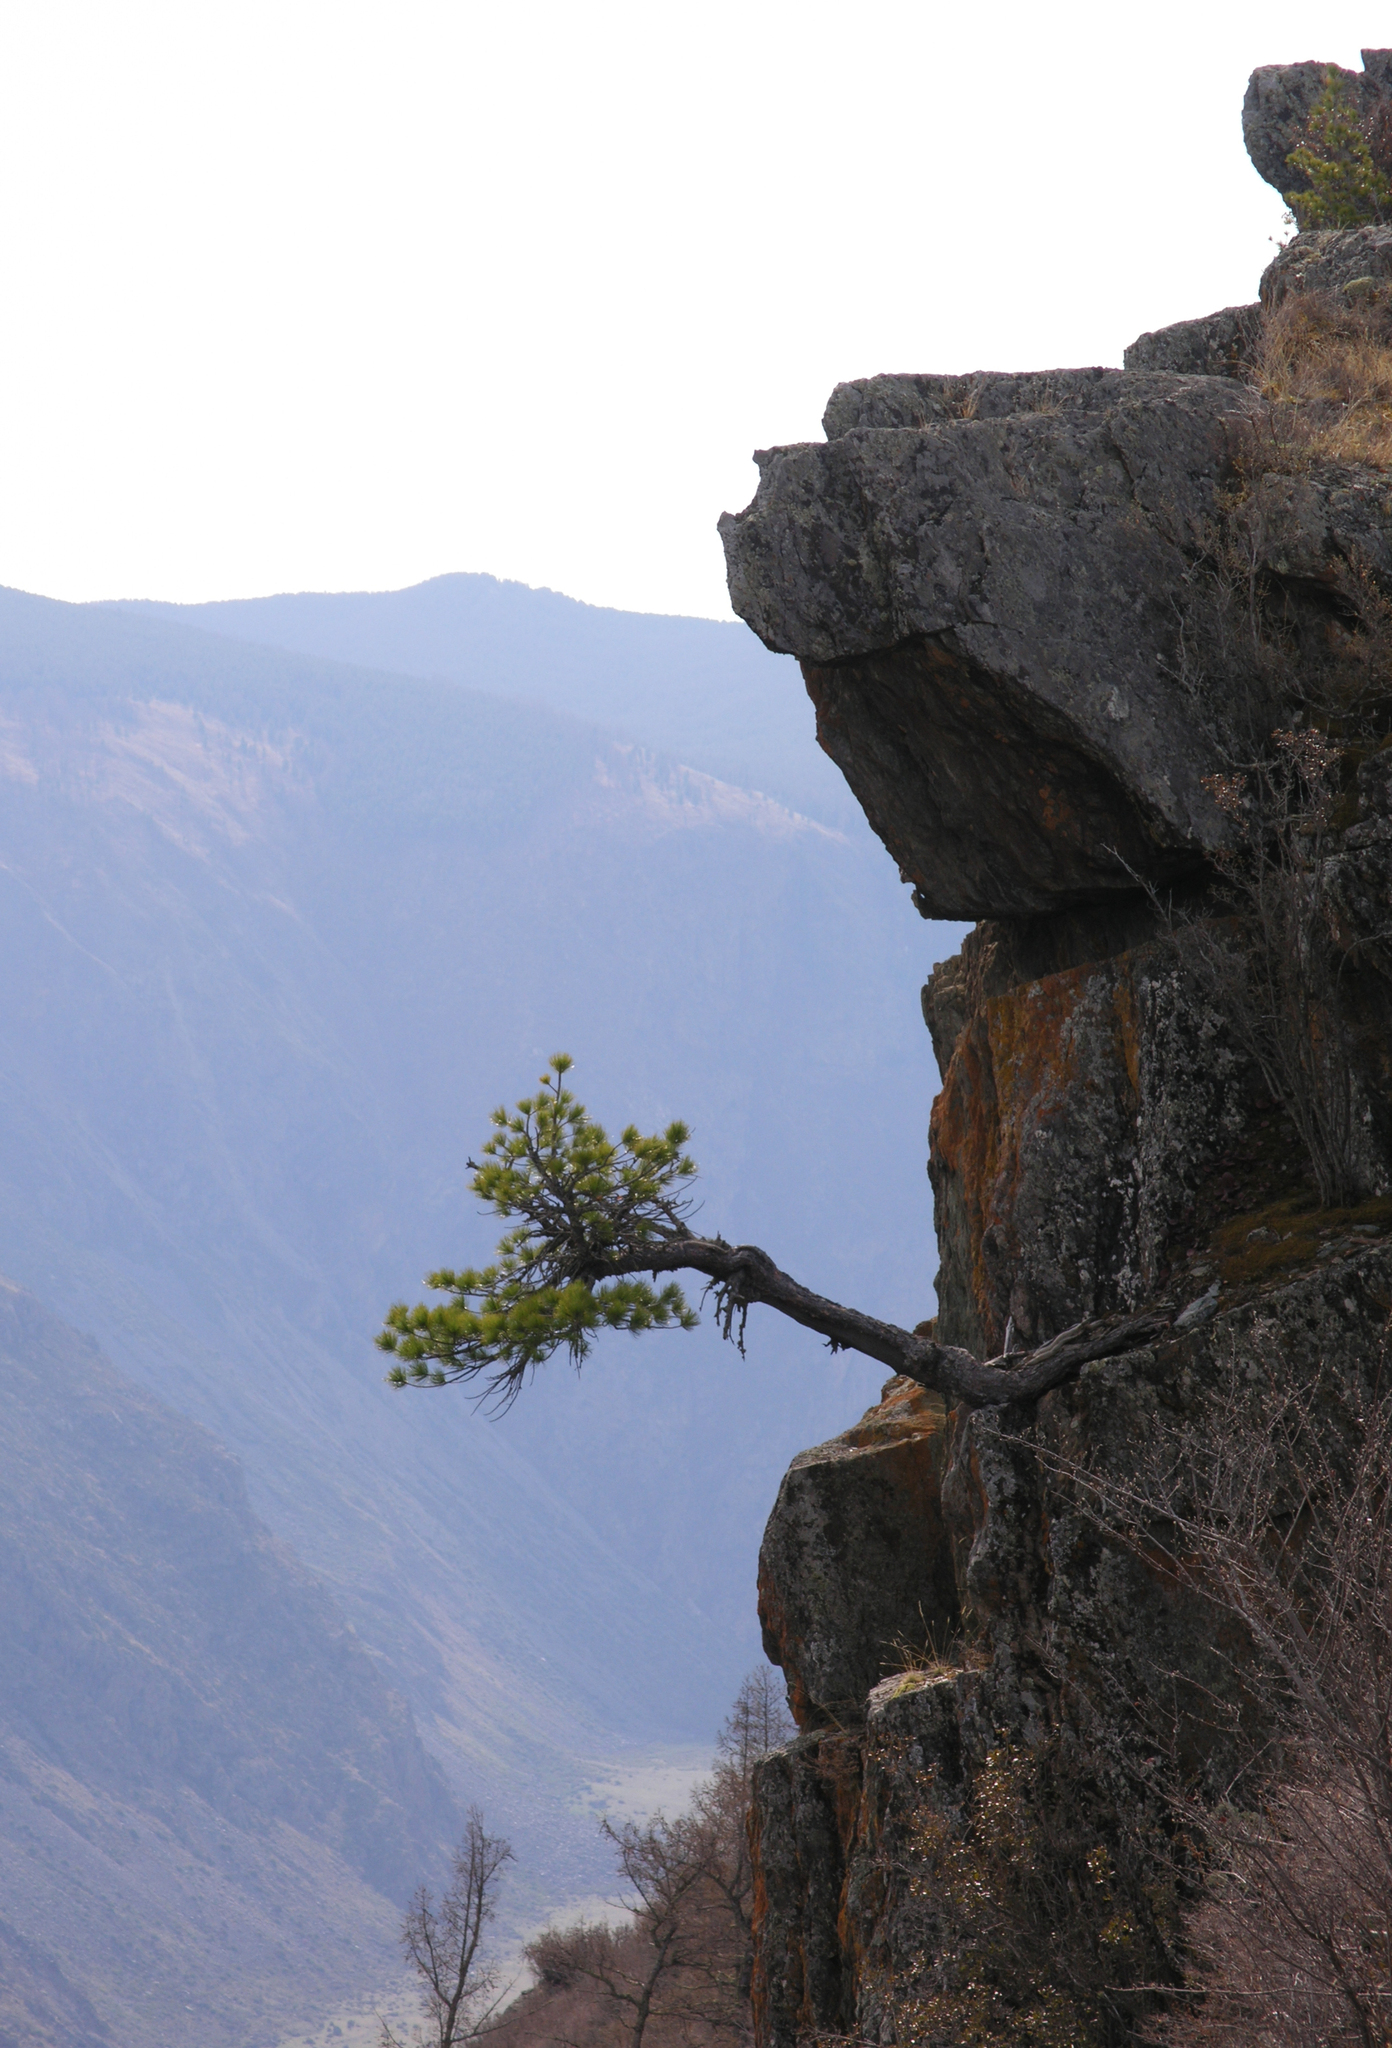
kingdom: Plantae
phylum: Tracheophyta
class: Pinopsida
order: Pinales
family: Pinaceae
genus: Pinus
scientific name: Pinus sibirica
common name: Siberian pine
